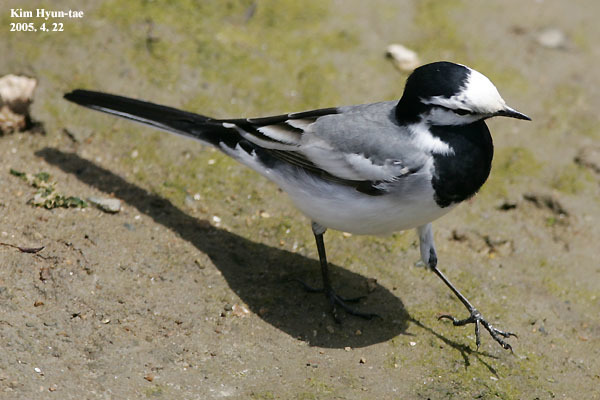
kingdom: Animalia
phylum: Chordata
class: Aves
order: Passeriformes
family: Motacillidae
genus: Motacilla
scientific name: Motacilla alba
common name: White wagtail
